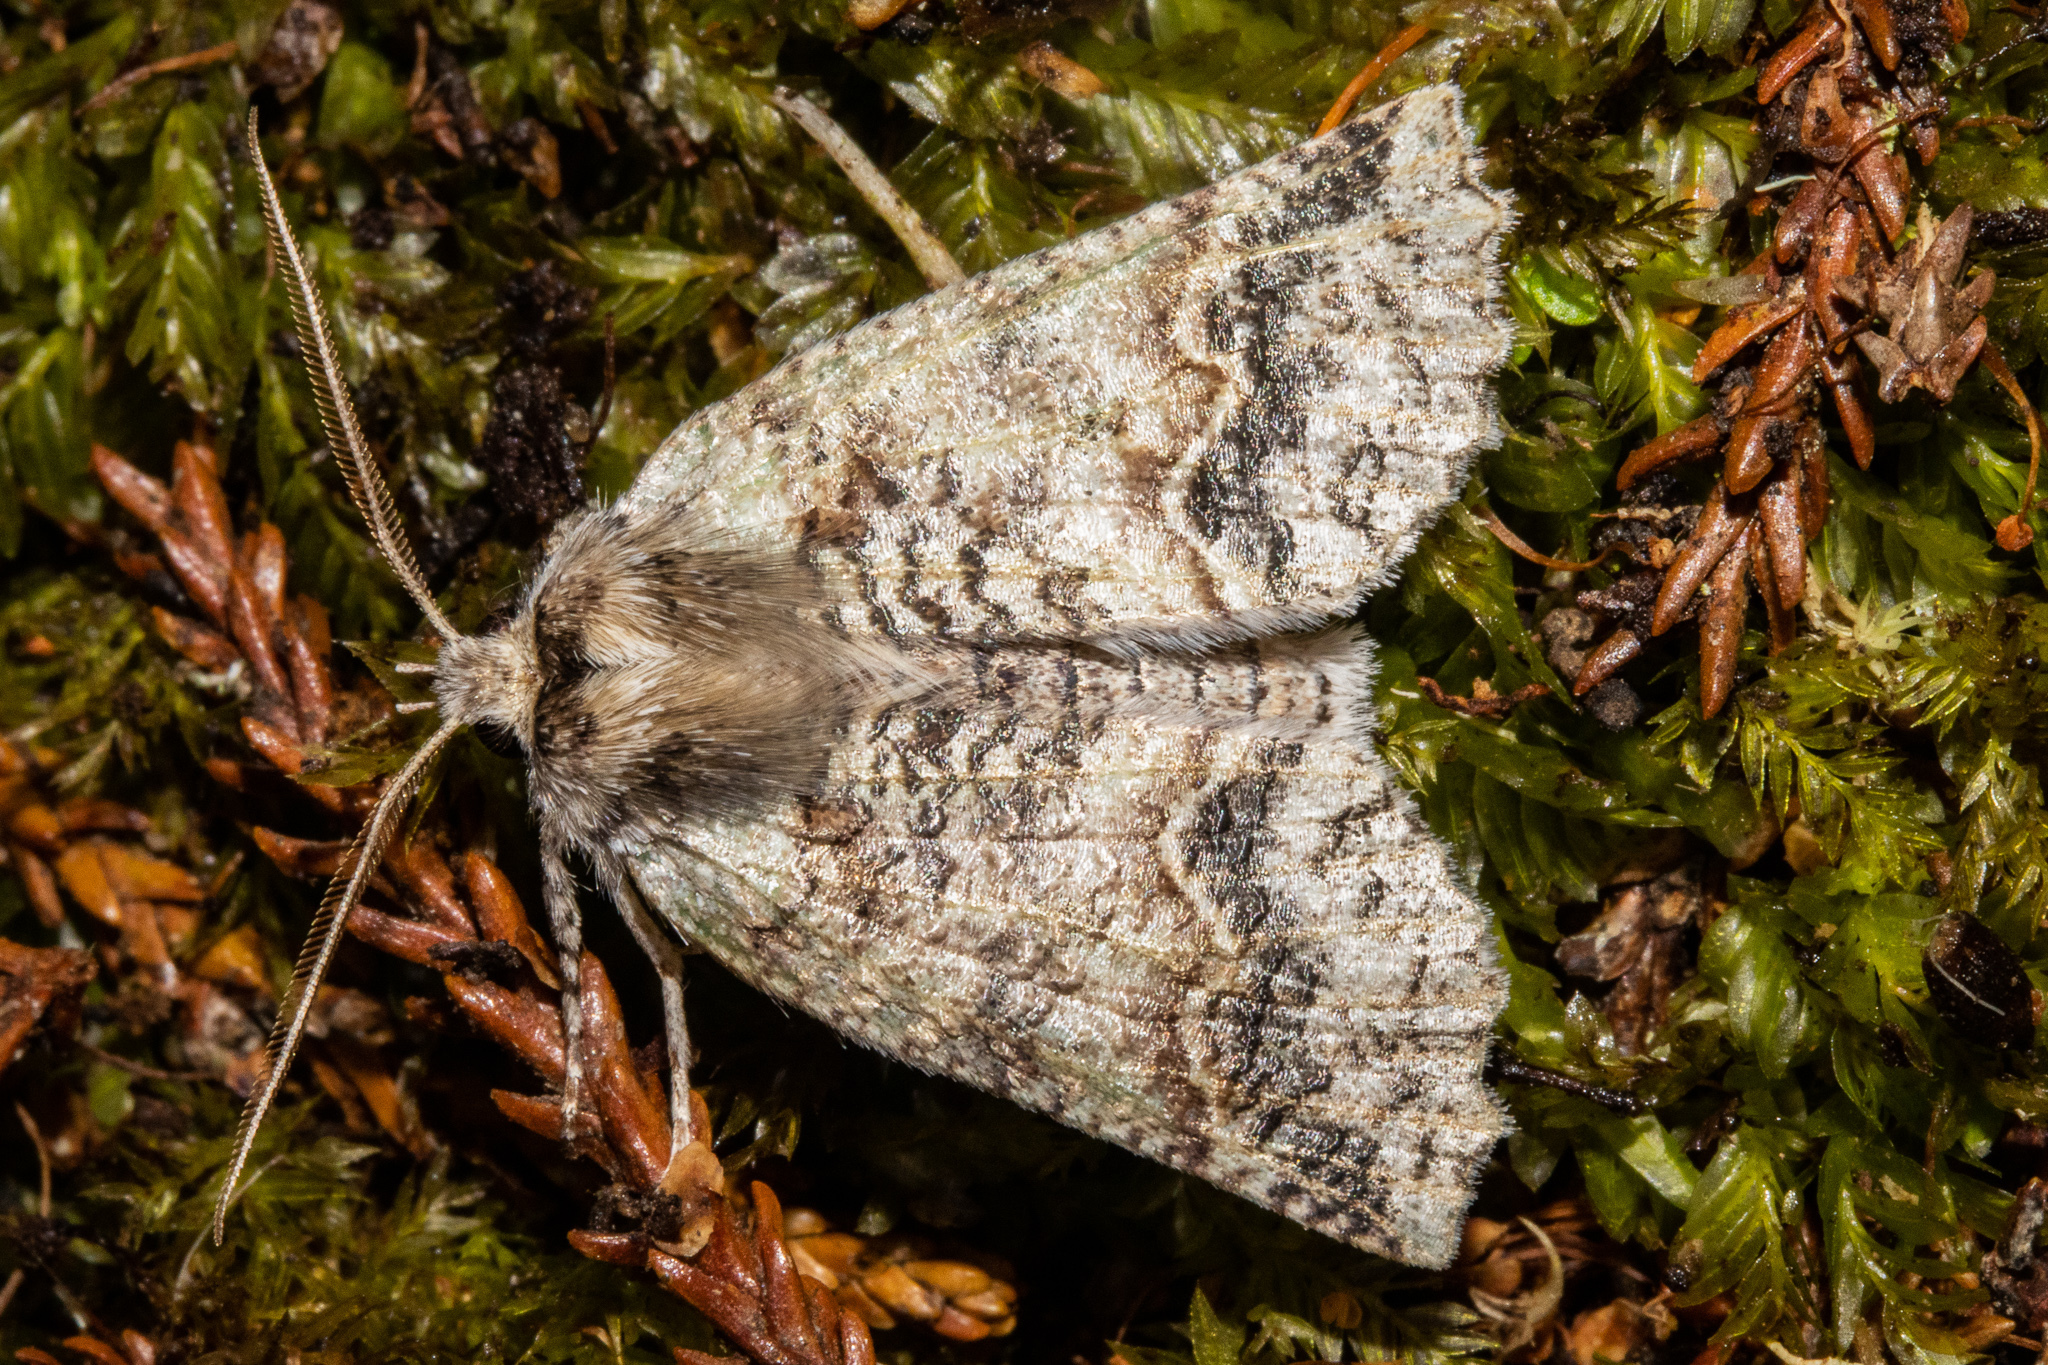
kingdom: Animalia
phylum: Arthropoda
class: Insecta
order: Lepidoptera
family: Geometridae
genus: Declana
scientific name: Declana floccosa
